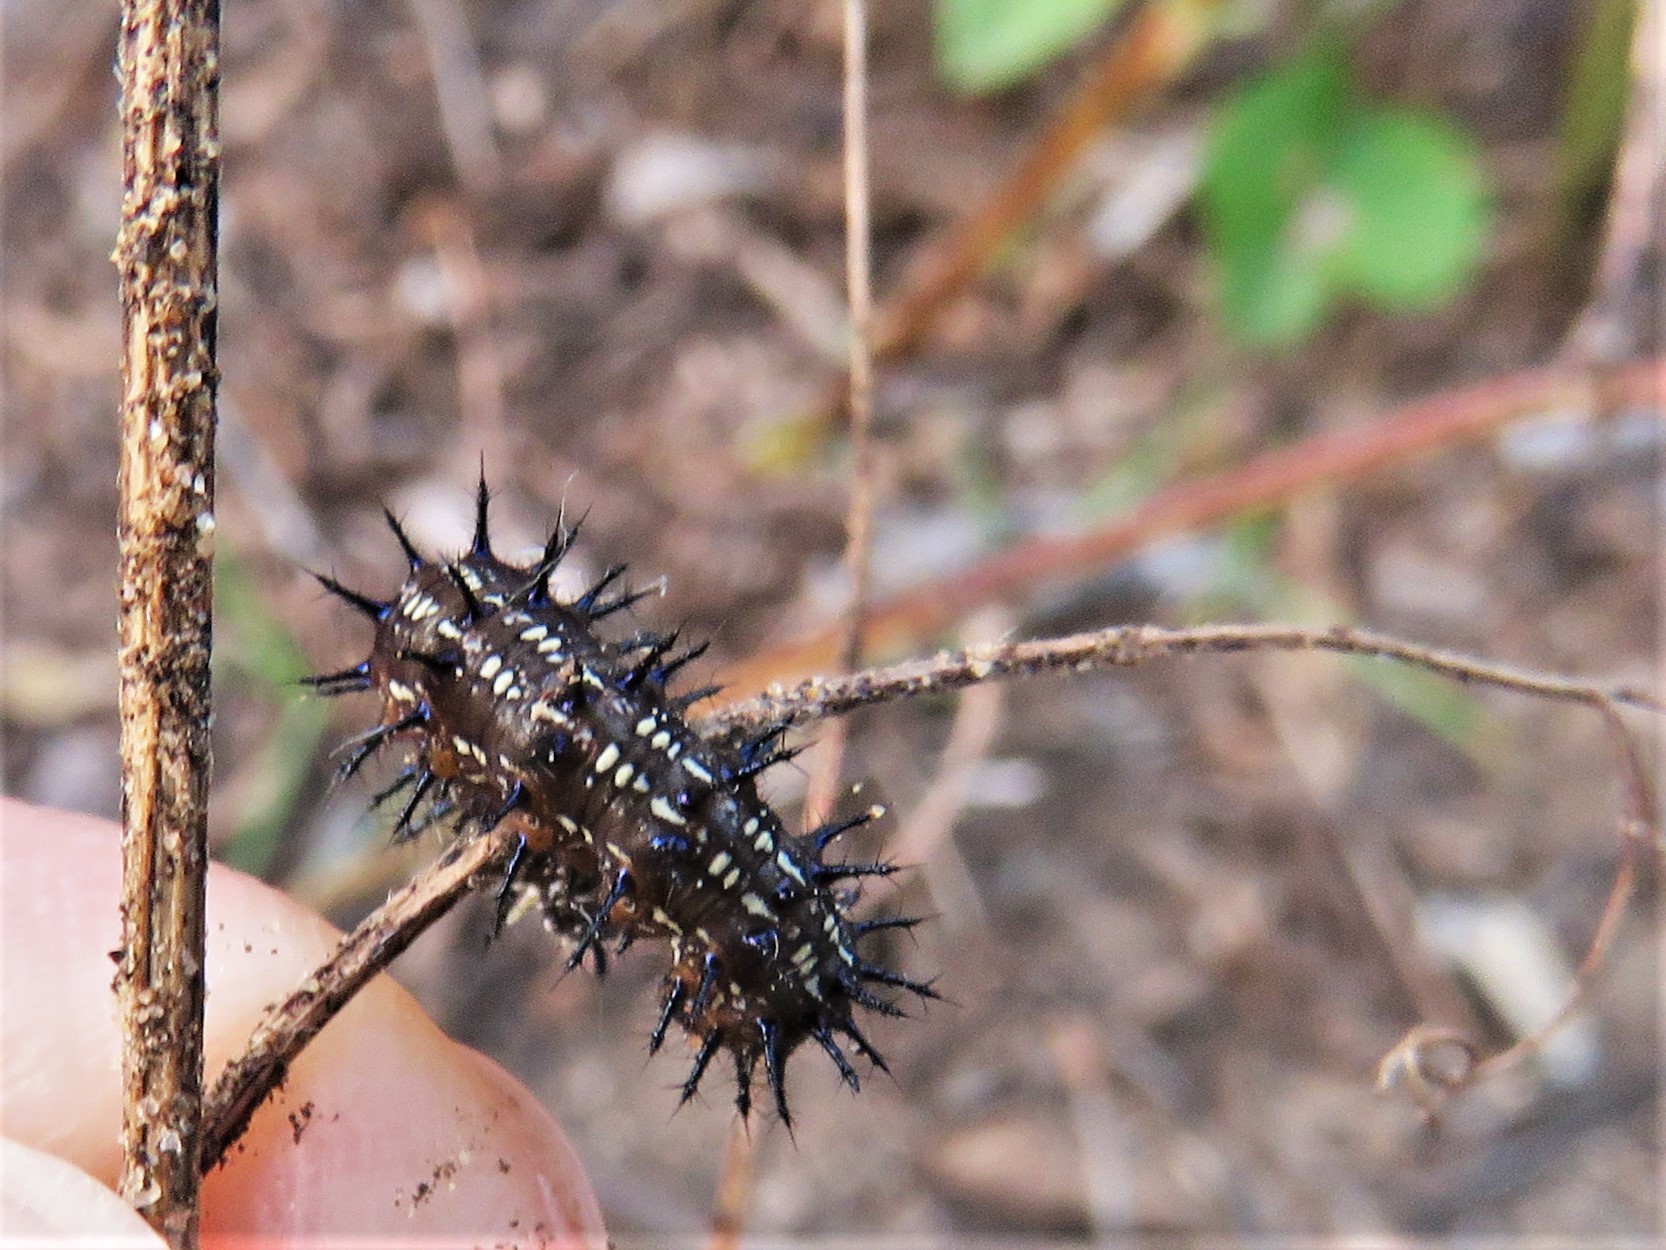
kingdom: Animalia
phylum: Arthropoda
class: Insecta
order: Lepidoptera
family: Nymphalidae
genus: Junonia
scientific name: Junonia coenia
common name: Common buckeye
